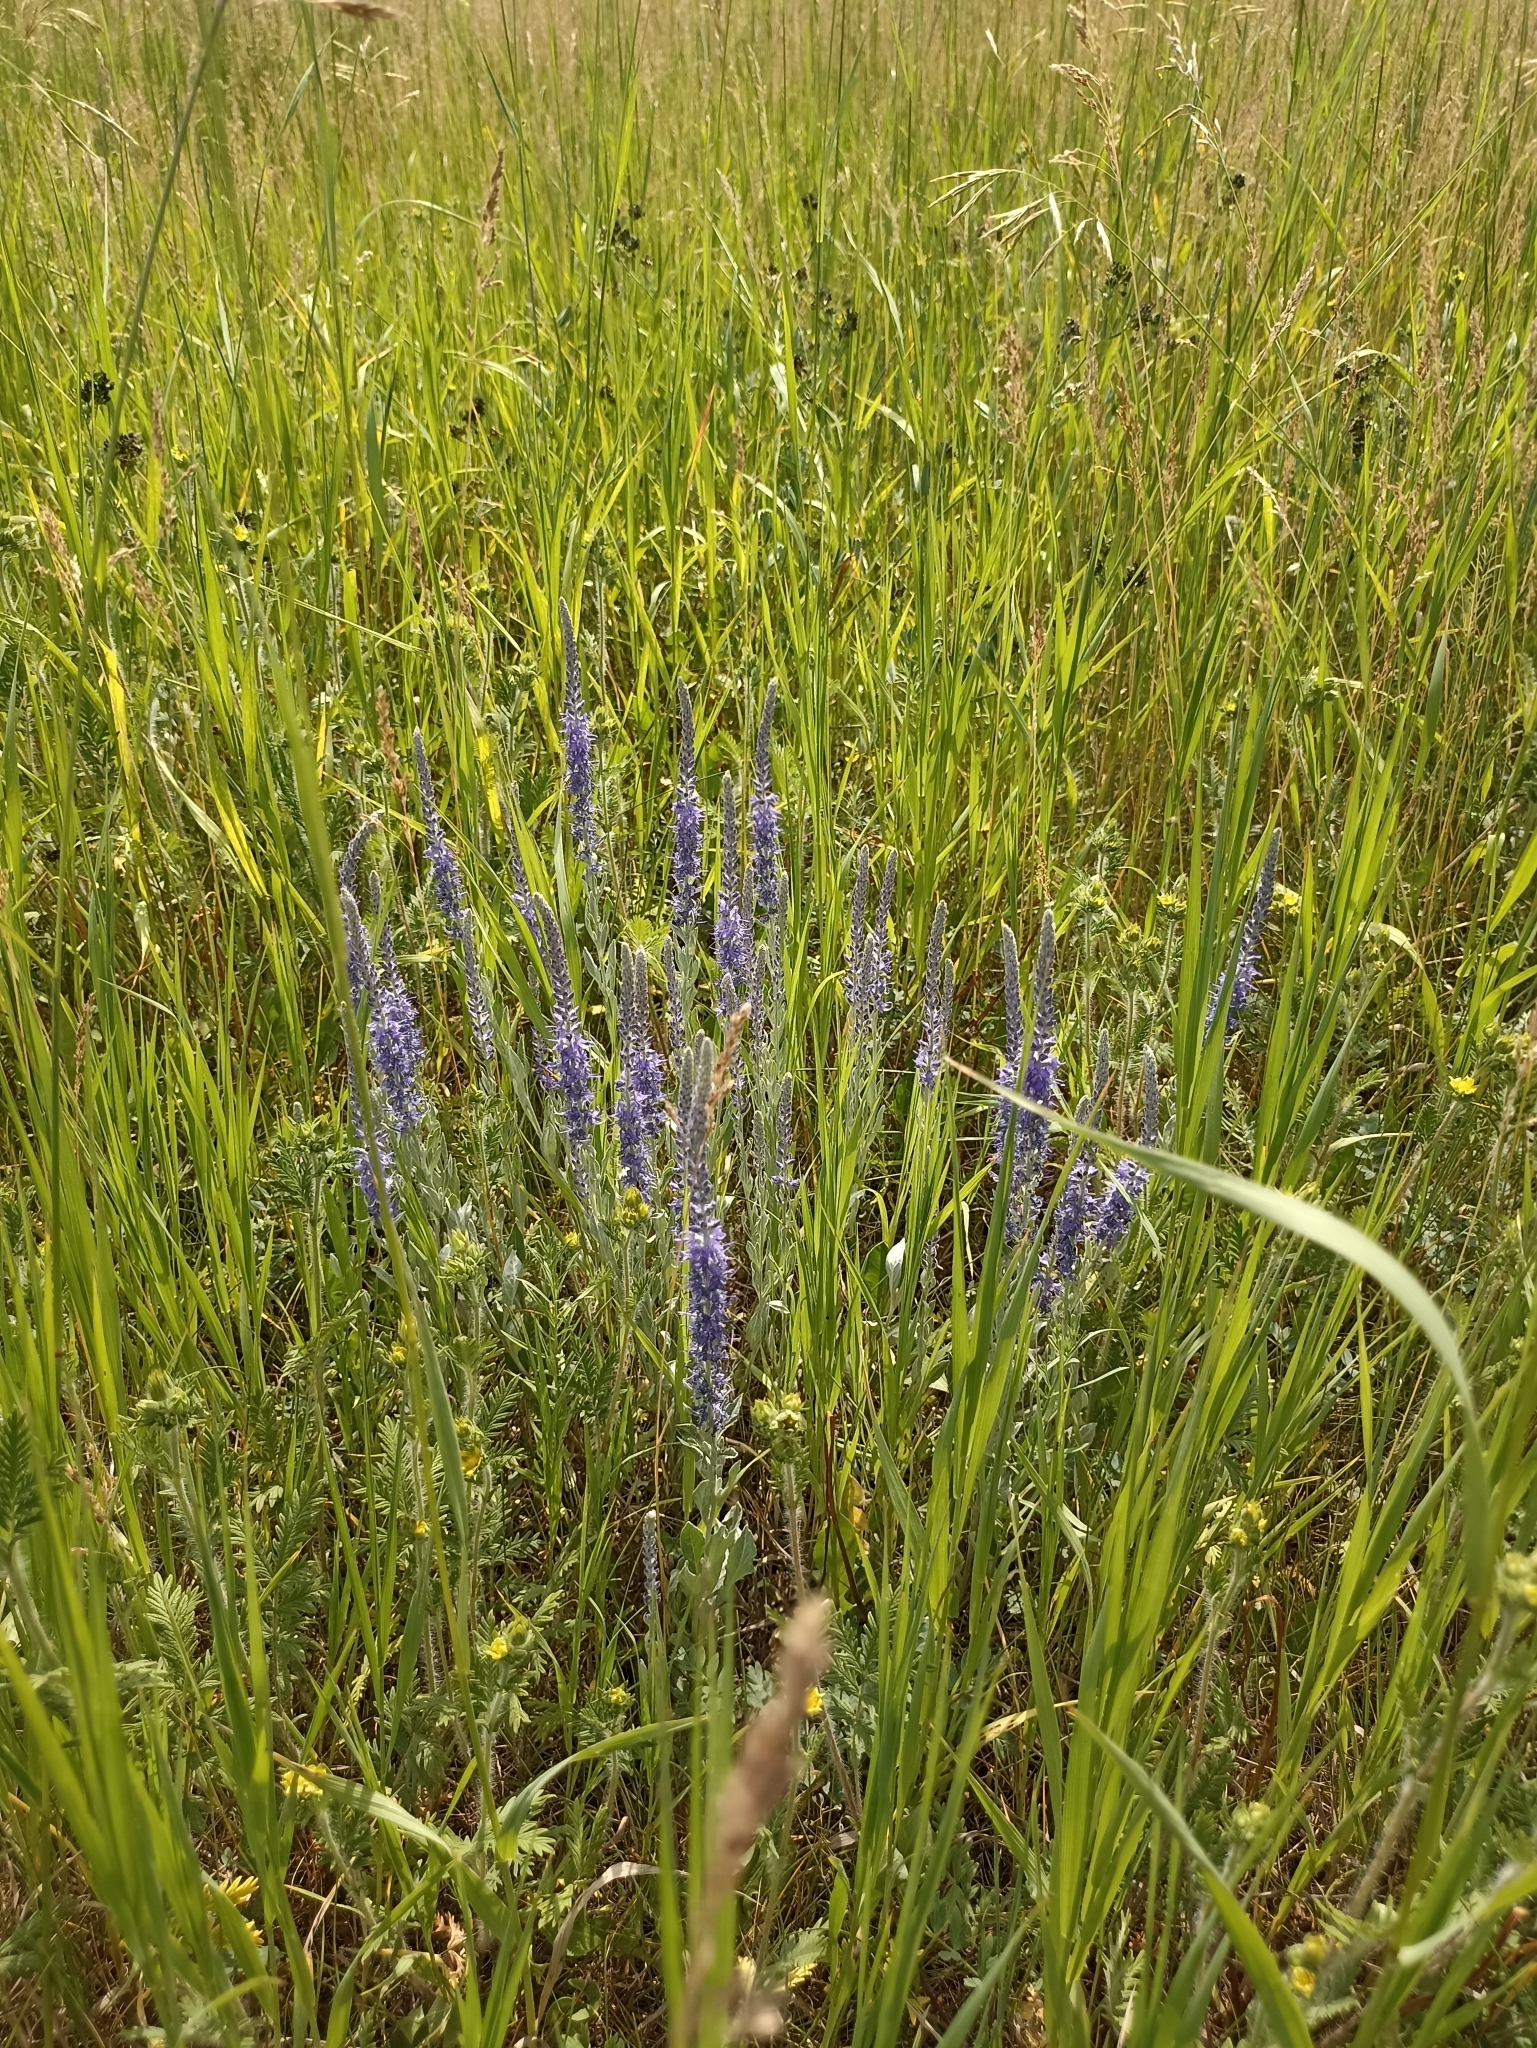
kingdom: Plantae
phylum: Tracheophyta
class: Magnoliopsida
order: Lamiales
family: Plantaginaceae
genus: Veronica
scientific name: Veronica incana
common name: Silver speedwell
